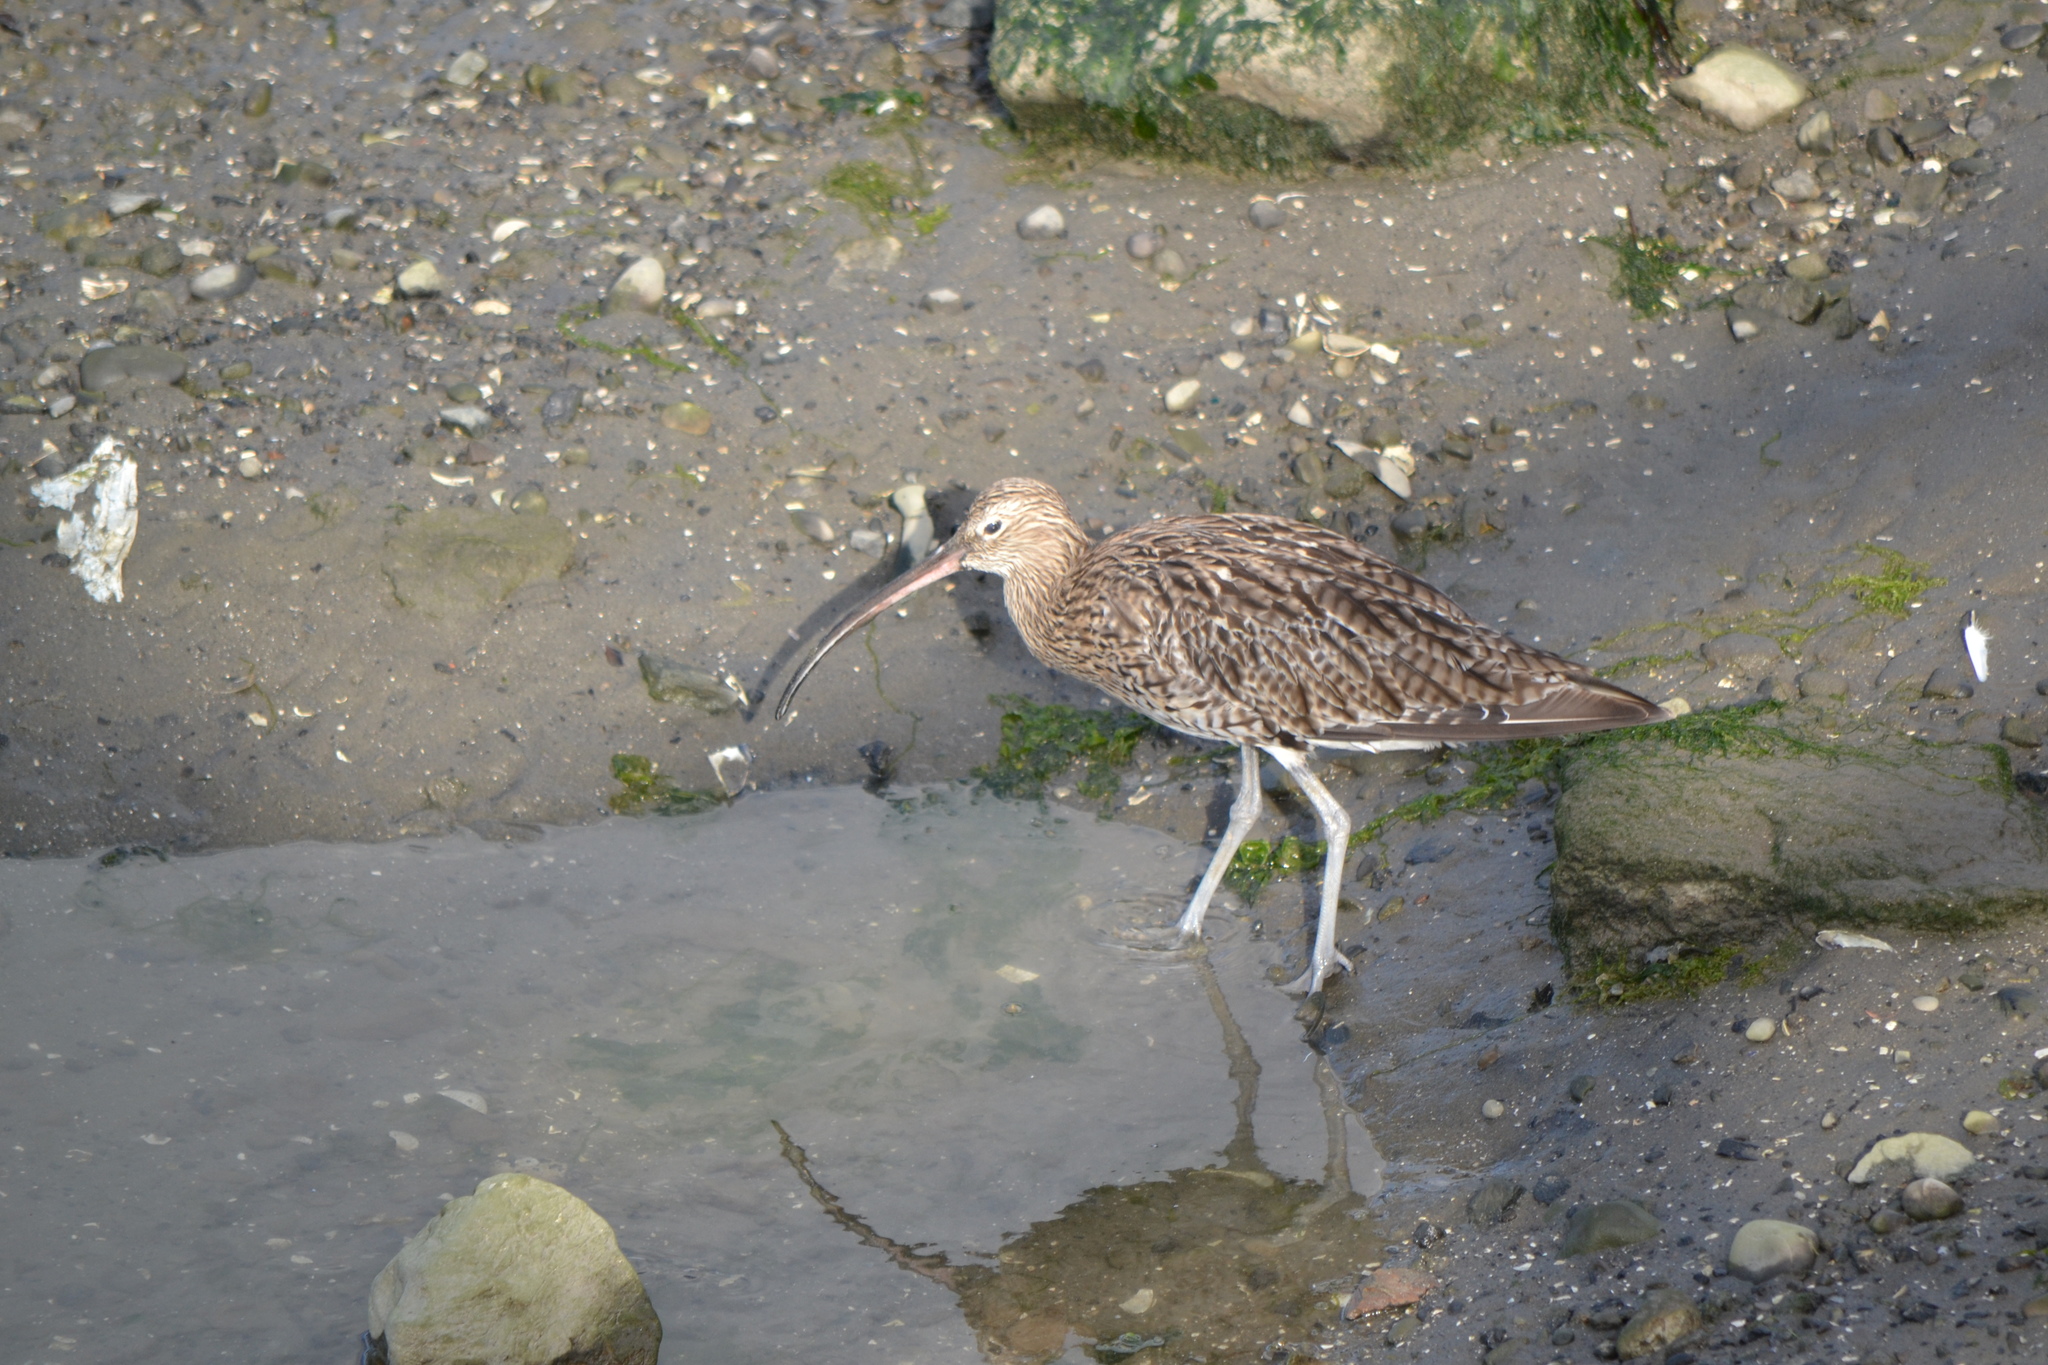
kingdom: Animalia
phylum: Chordata
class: Aves
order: Charadriiformes
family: Scolopacidae
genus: Numenius
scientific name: Numenius arquata
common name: Eurasian curlew
